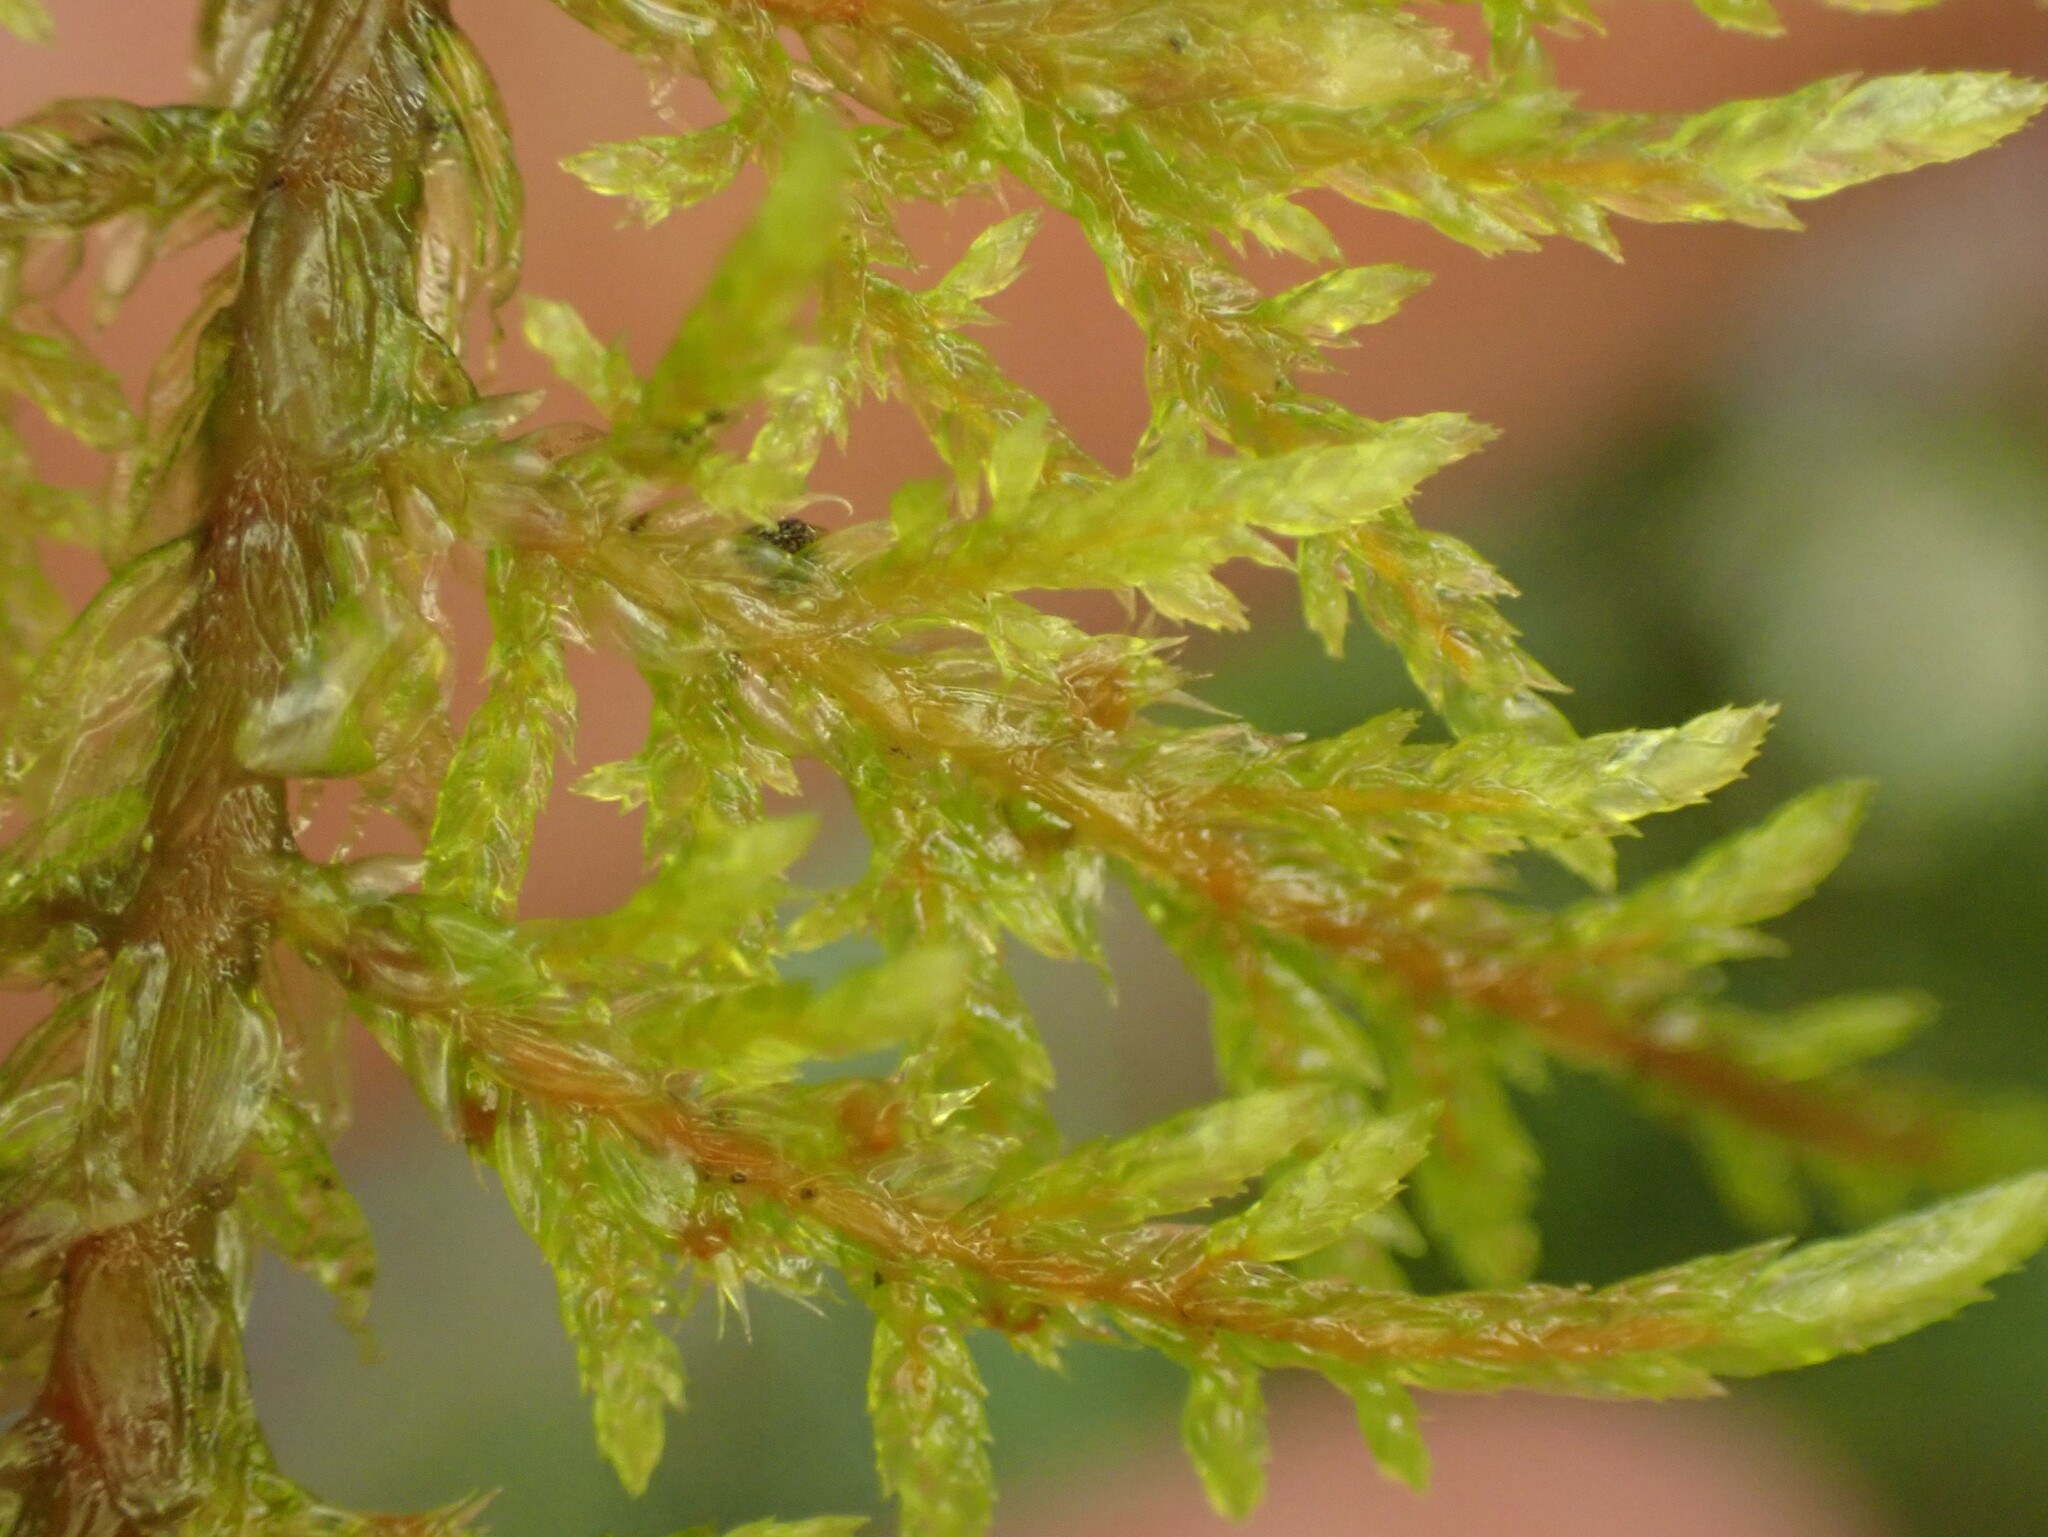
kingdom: Plantae
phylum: Bryophyta
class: Bryopsida
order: Hypnales
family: Hylocomiaceae
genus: Hylocomium
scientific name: Hylocomium splendens
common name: Stairstep moss
